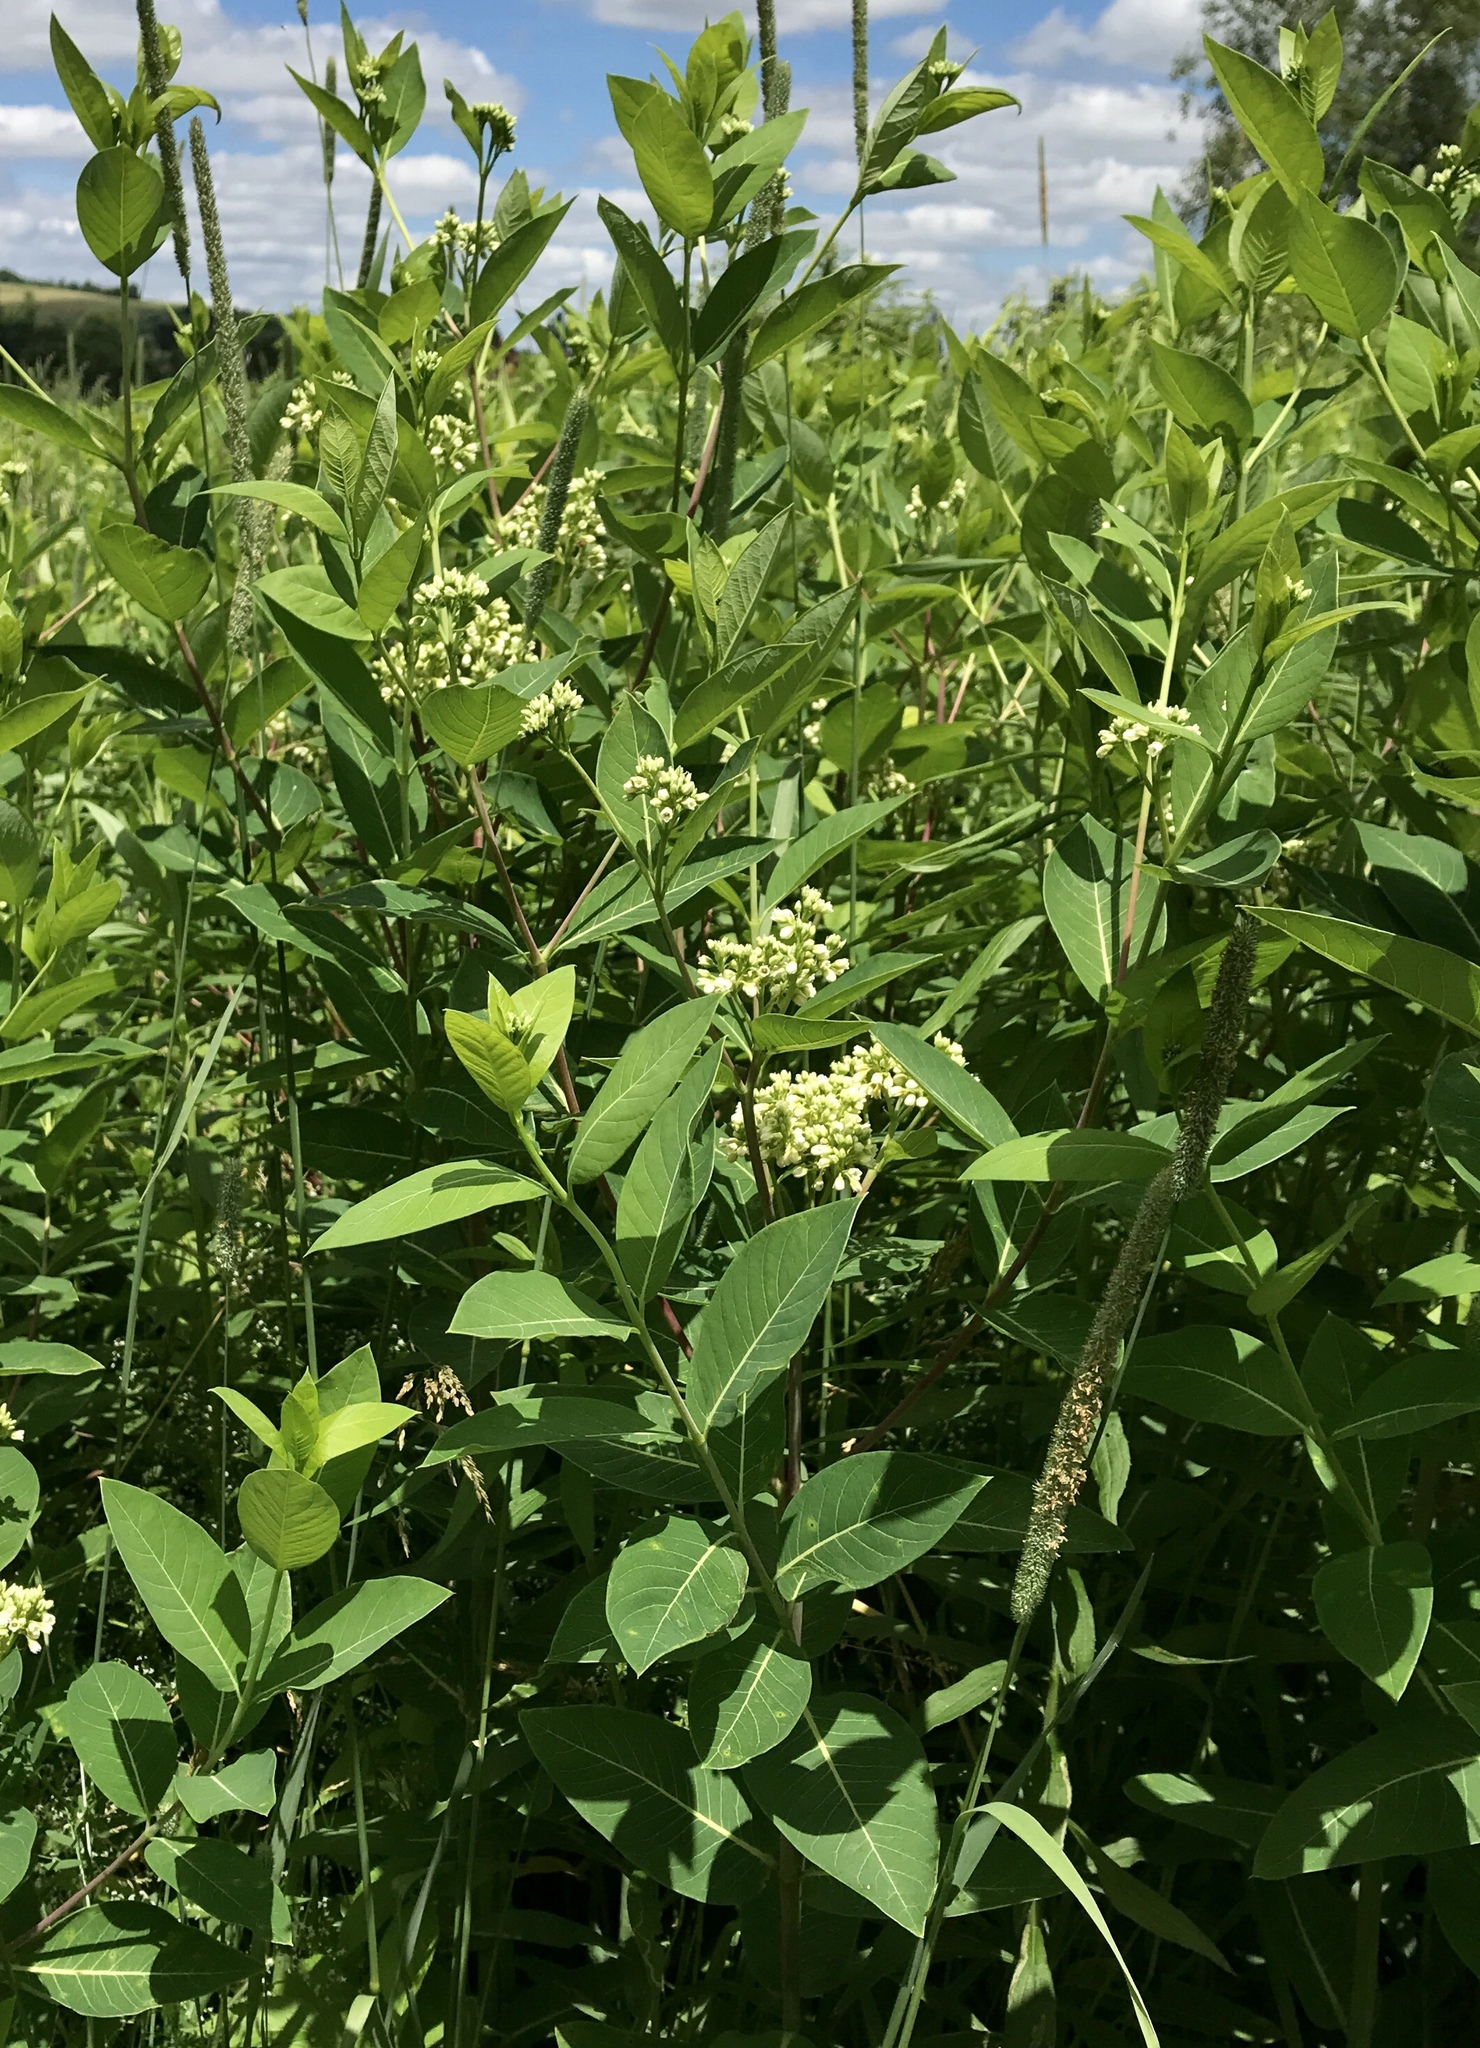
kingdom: Plantae
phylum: Tracheophyta
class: Magnoliopsida
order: Gentianales
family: Apocynaceae
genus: Apocynum
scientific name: Apocynum cannabinum
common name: Hemp dogbane
